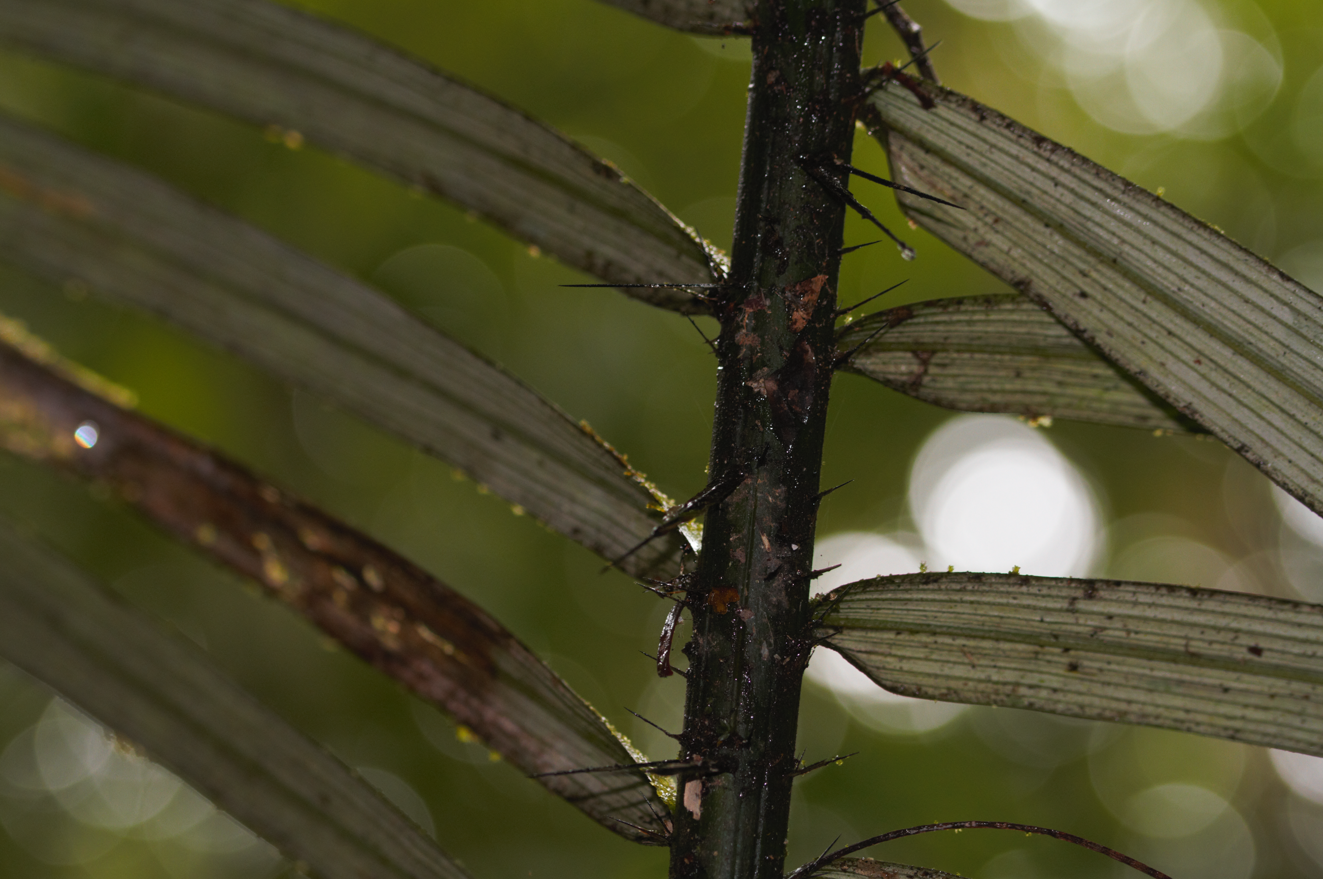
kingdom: Plantae
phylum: Tracheophyta
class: Liliopsida
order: Arecales
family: Arecaceae
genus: Astrocaryum
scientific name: Astrocaryum paramaca
